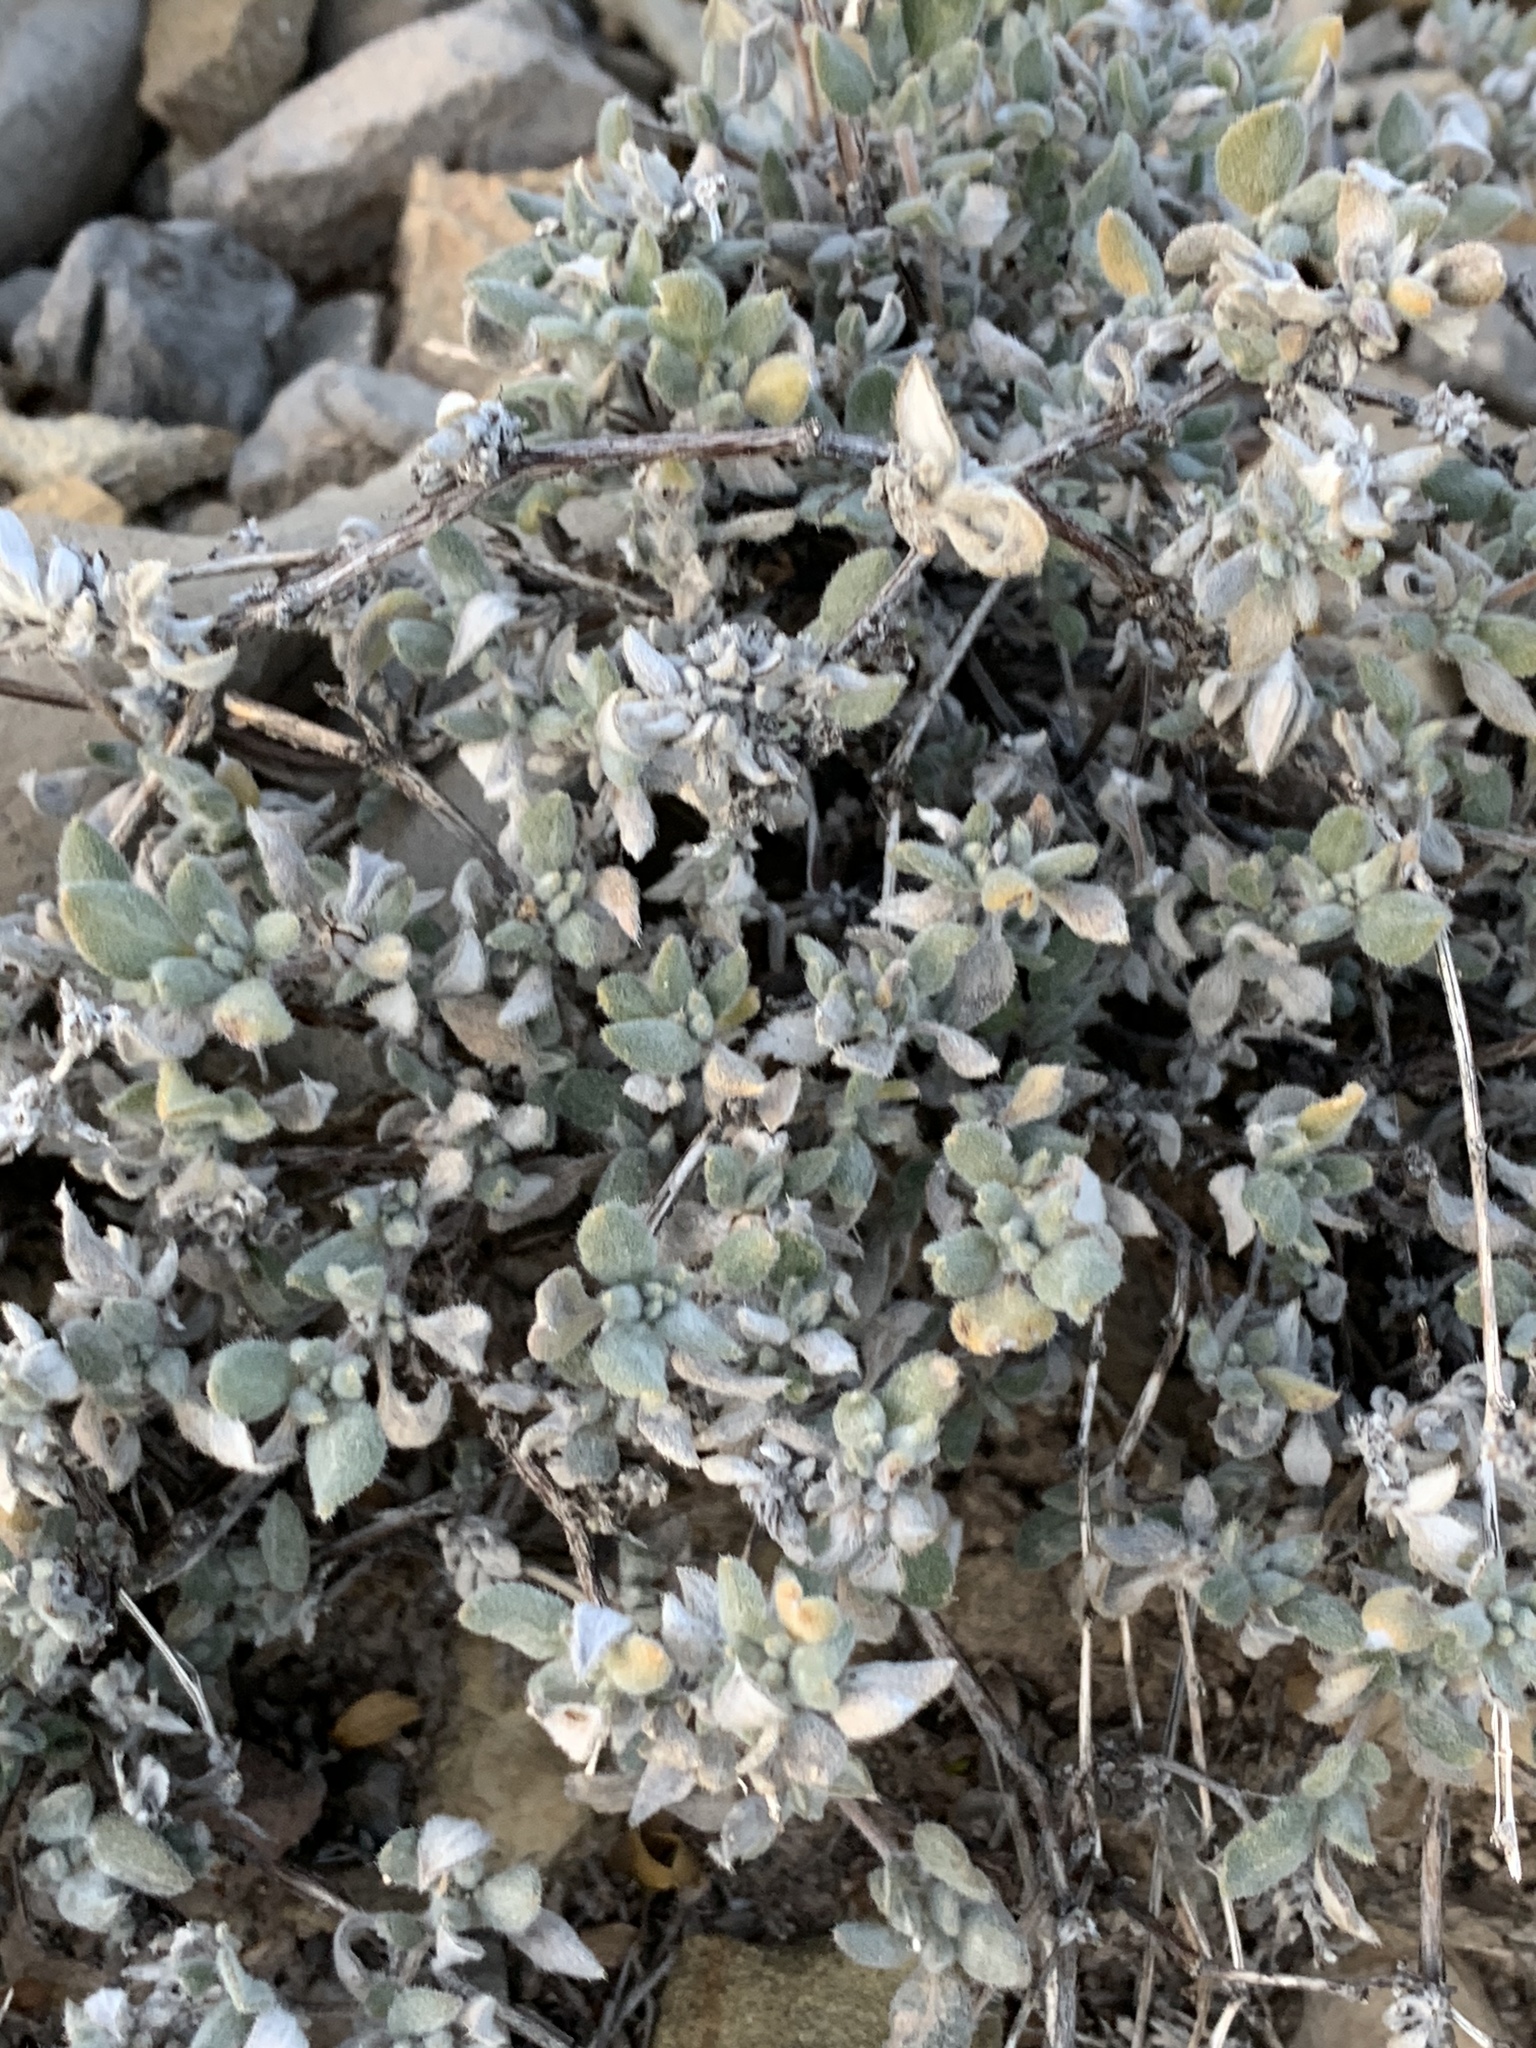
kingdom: Plantae
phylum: Tracheophyta
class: Magnoliopsida
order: Boraginales
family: Ehretiaceae
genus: Tiquilia
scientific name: Tiquilia canescens
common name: Hairy tiquilia
